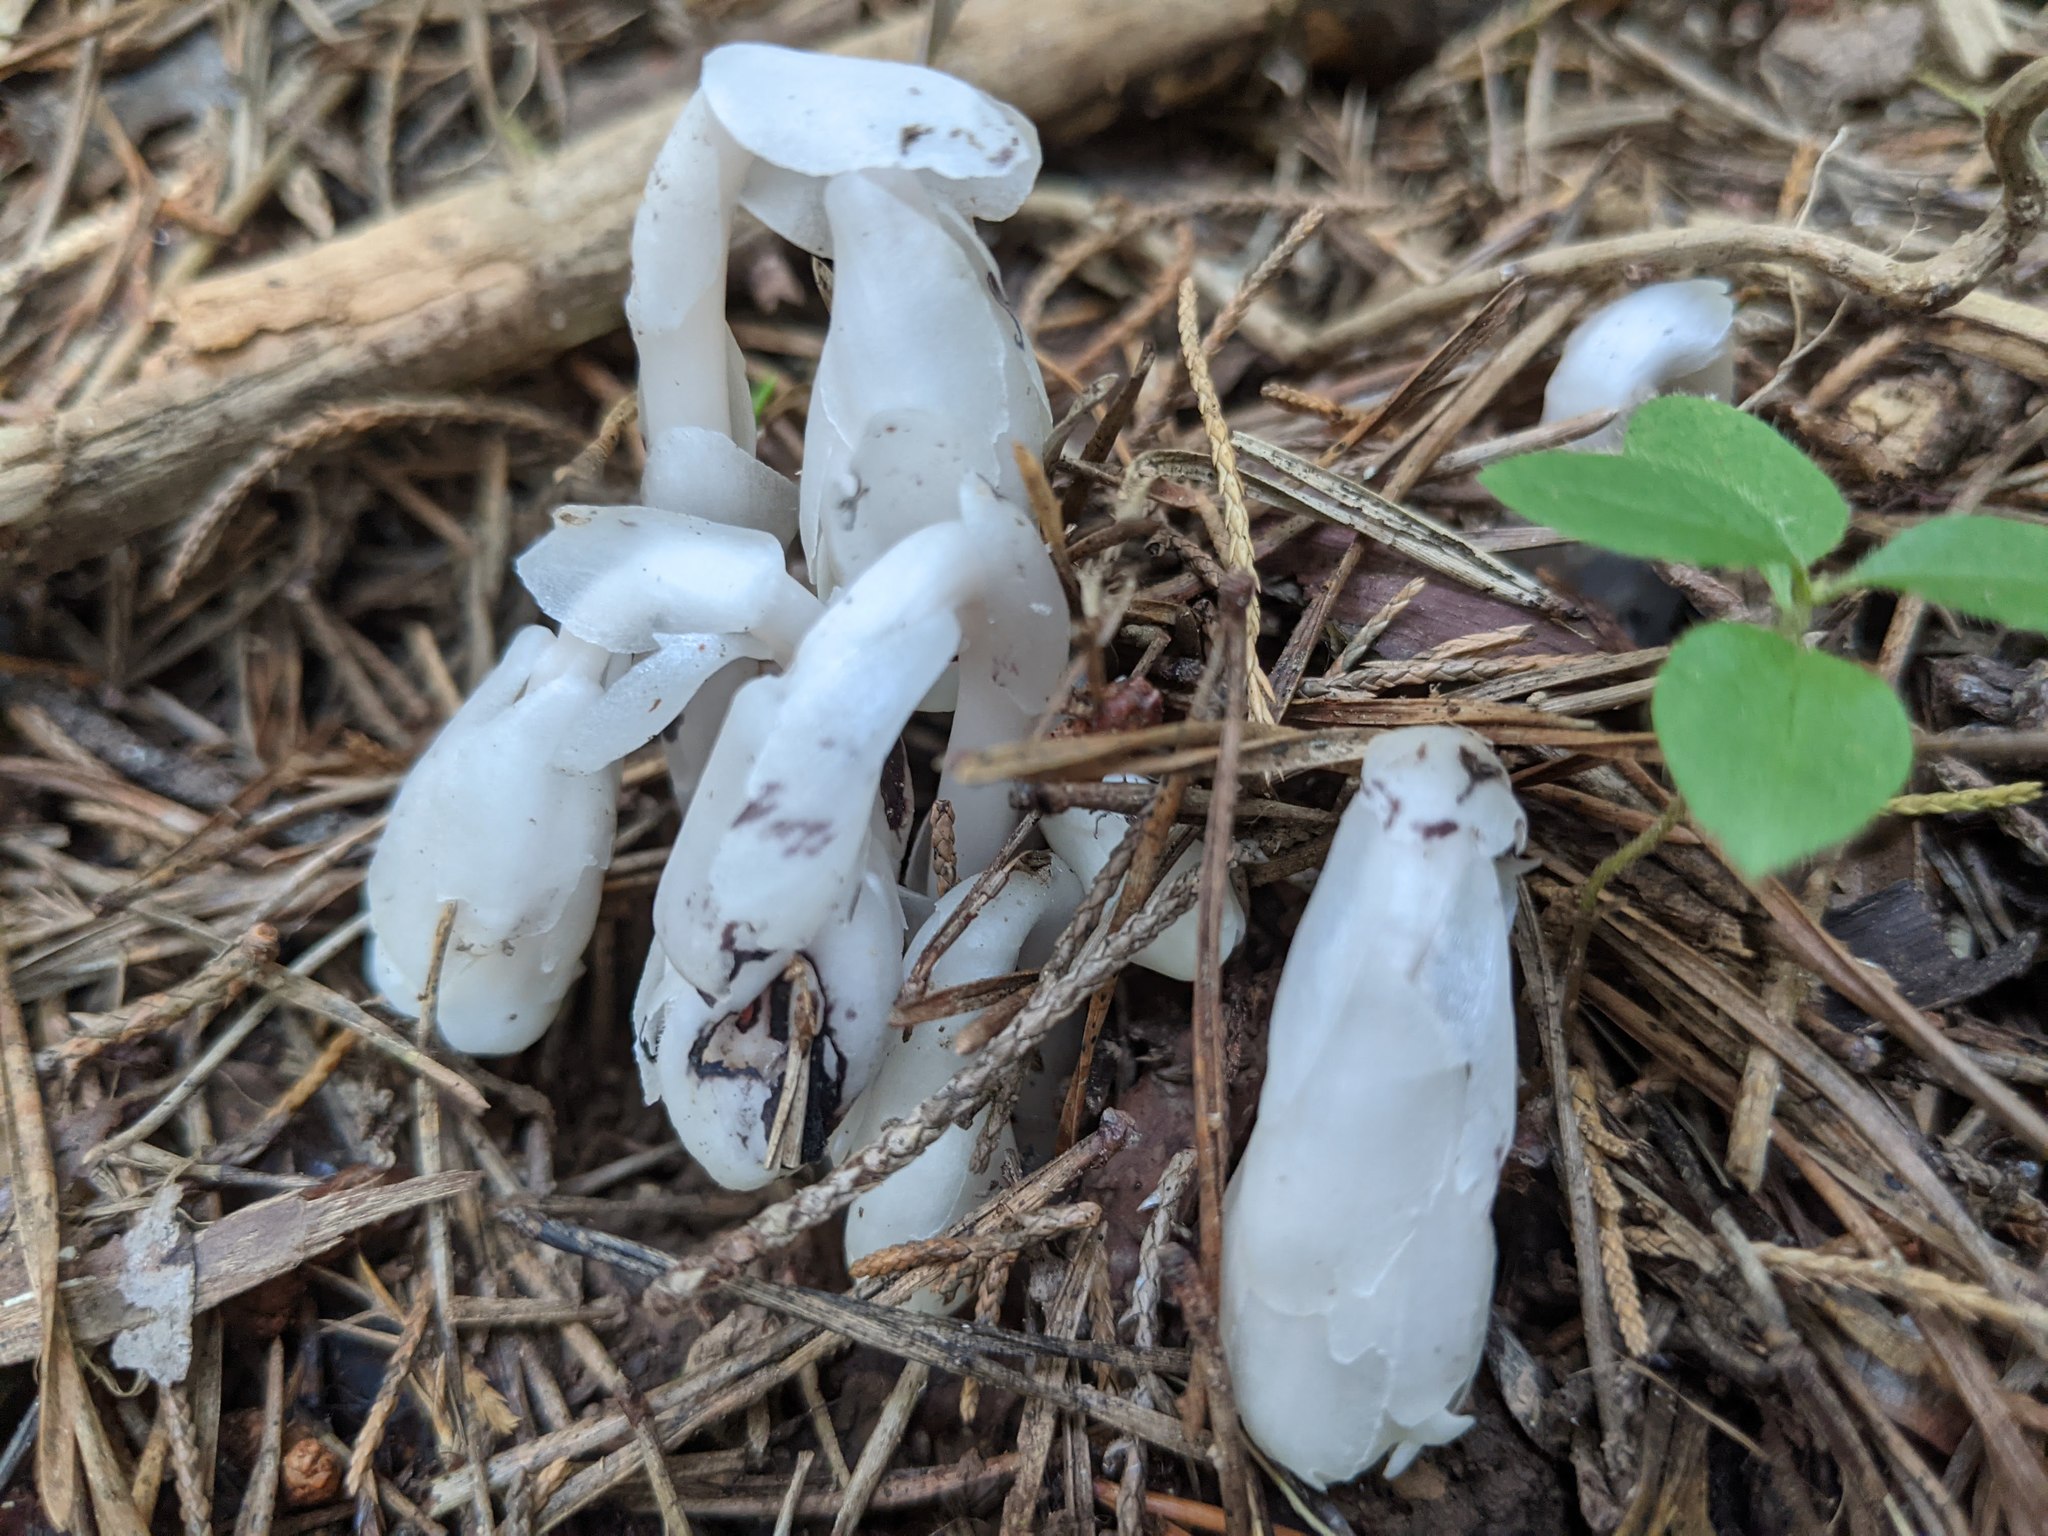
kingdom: Plantae
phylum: Tracheophyta
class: Magnoliopsida
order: Ericales
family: Ericaceae
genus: Monotropa
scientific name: Monotropa uniflora
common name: Convulsion root
